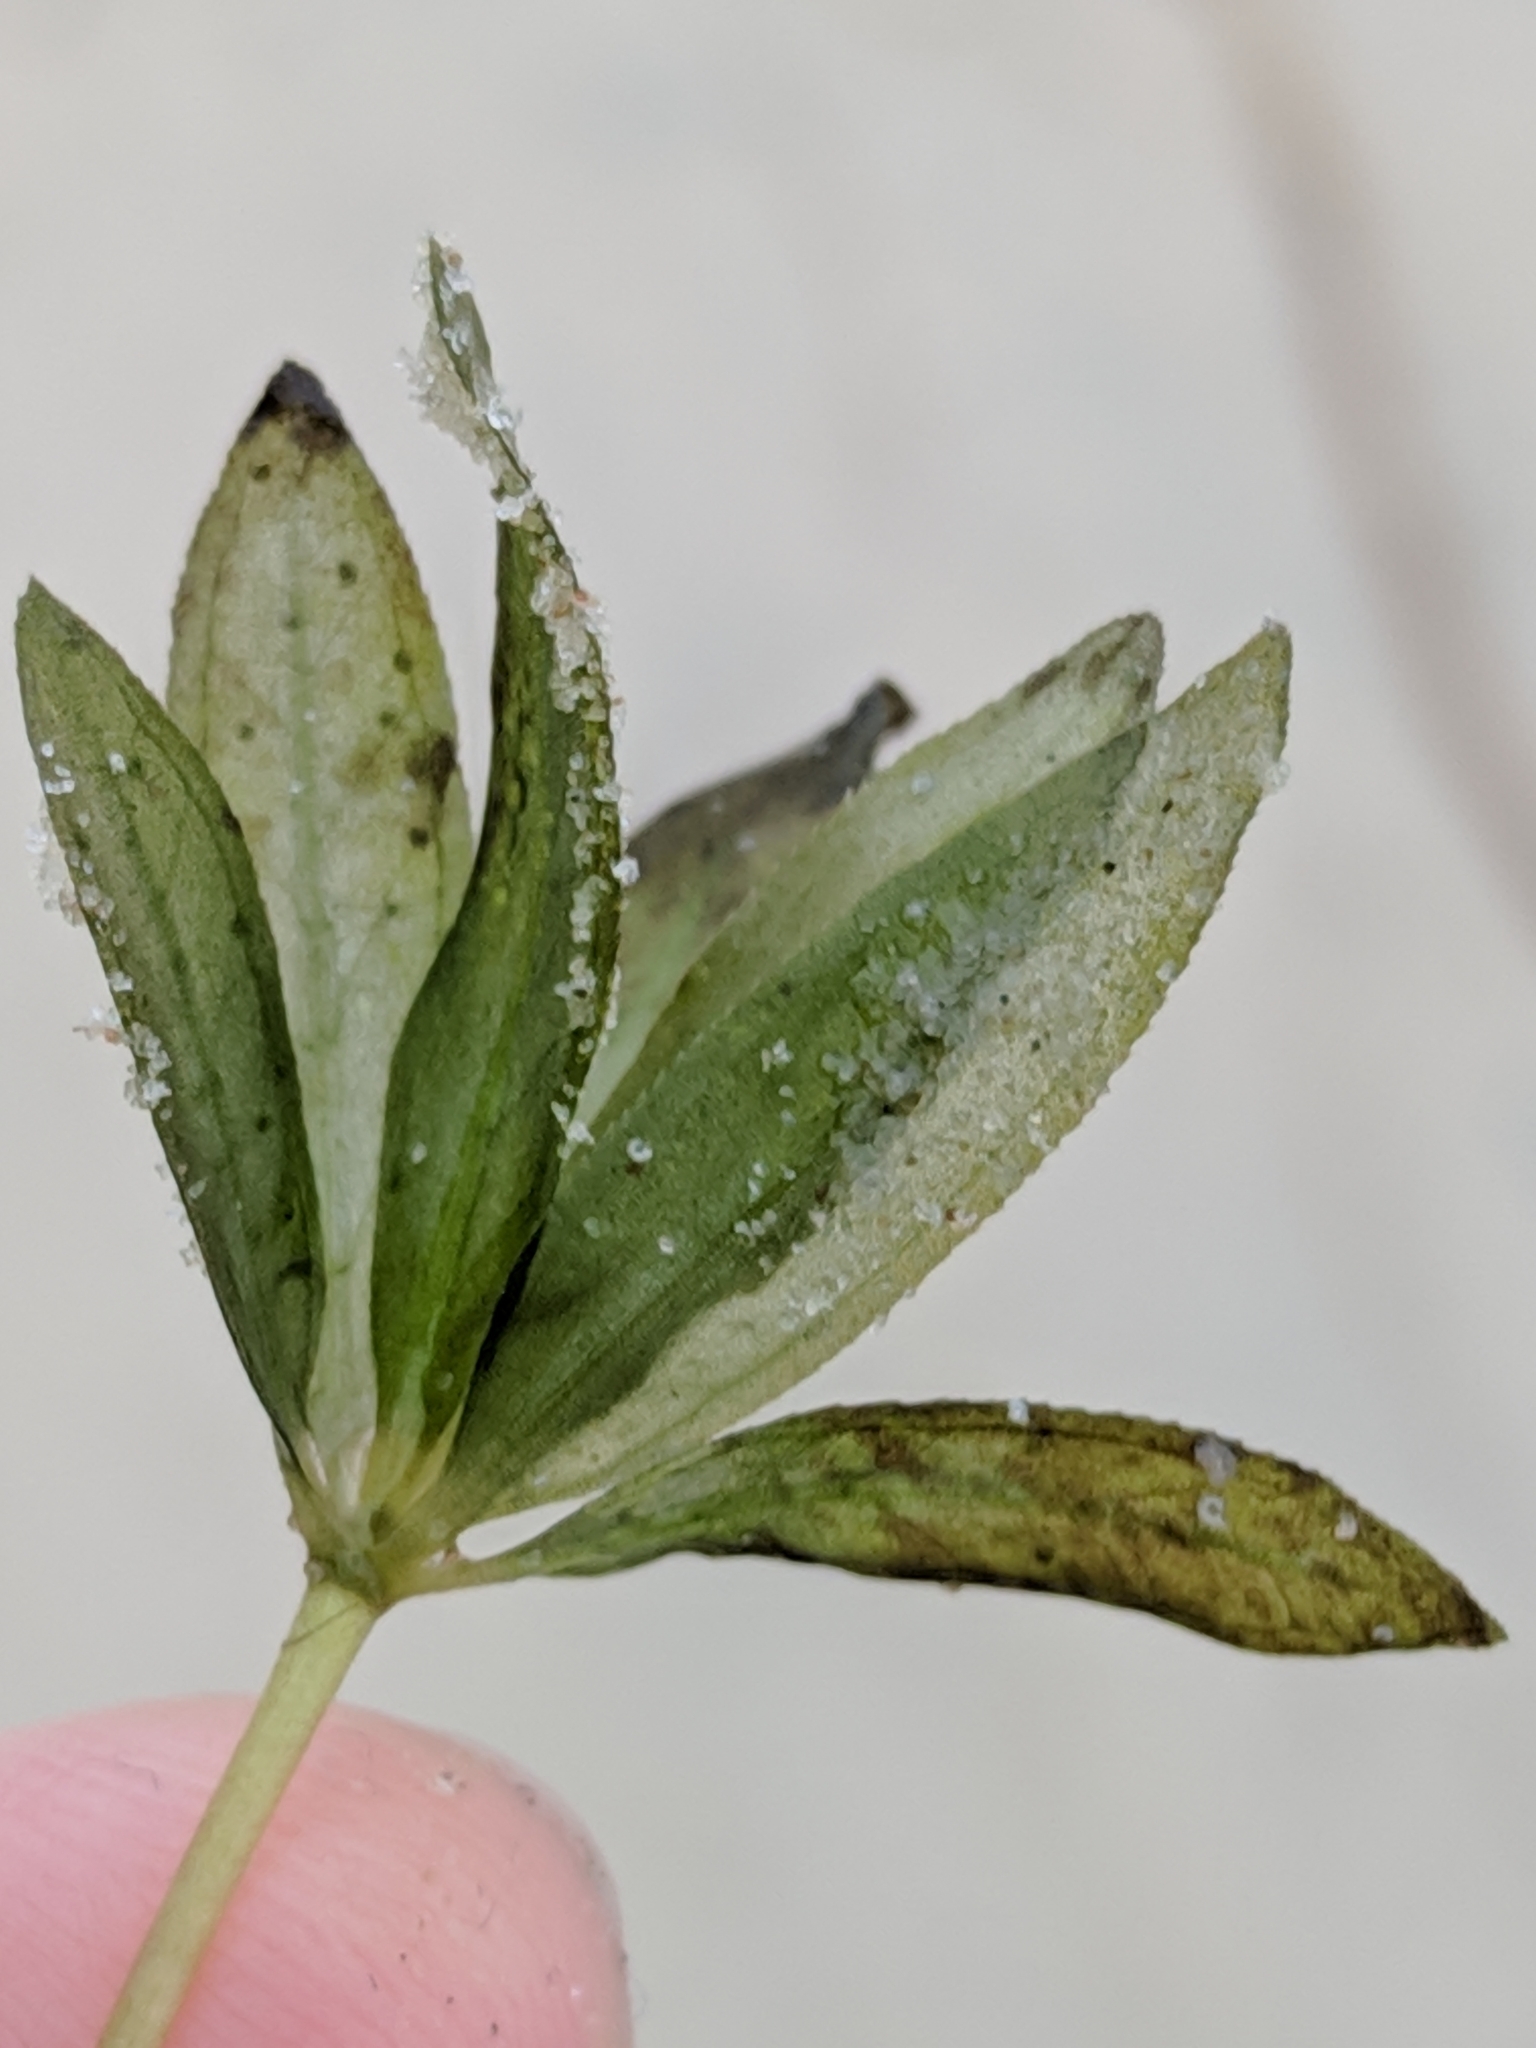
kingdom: Plantae
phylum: Tracheophyta
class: Liliopsida
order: Alismatales
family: Hydrocharitaceae
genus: Halophila
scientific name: Halophila engelmannii
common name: Species code: he
